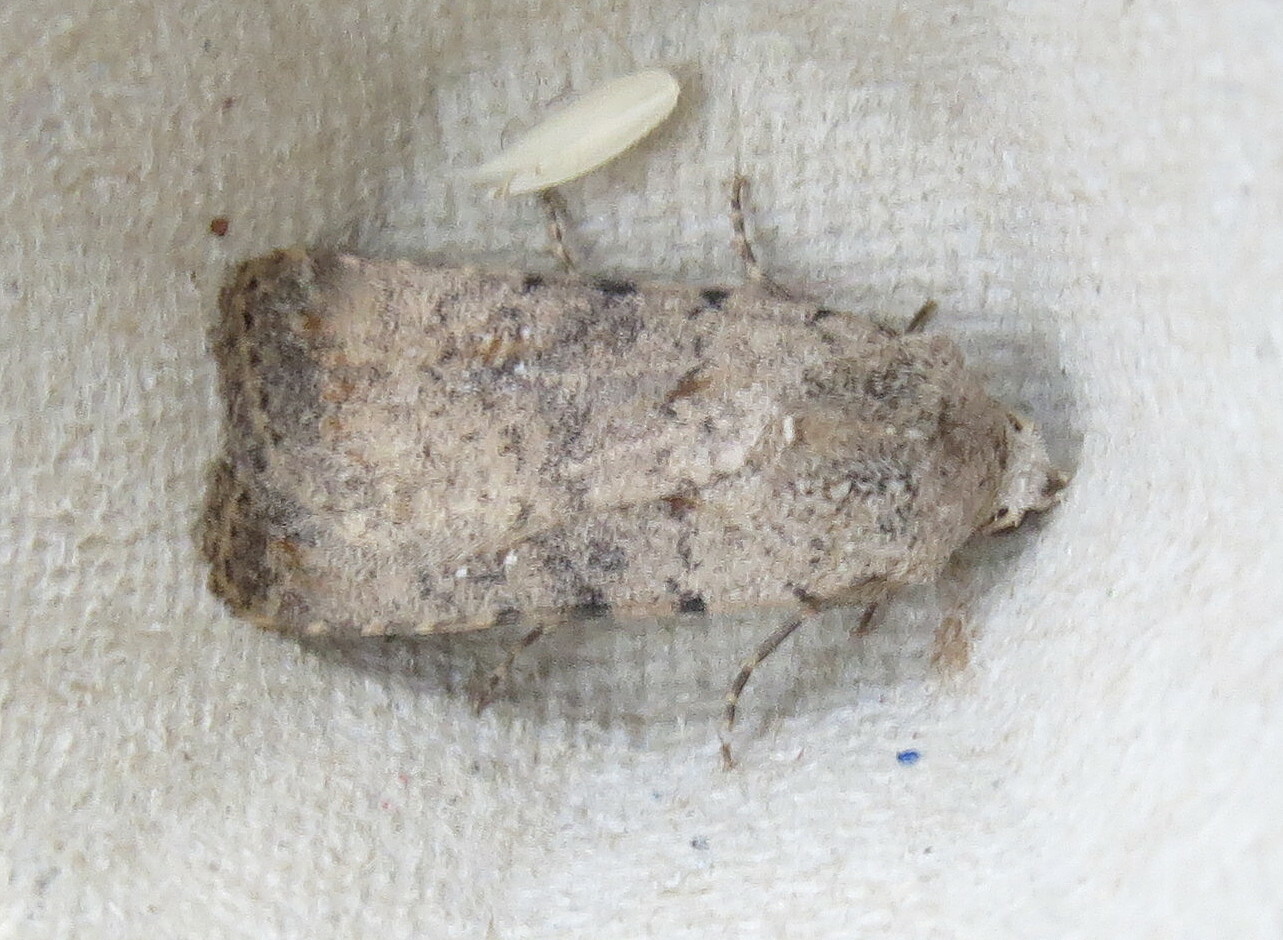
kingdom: Animalia
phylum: Arthropoda
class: Insecta
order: Lepidoptera
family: Noctuidae
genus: Caradrina
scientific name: Caradrina clavipalpis
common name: Pale mottled willow
